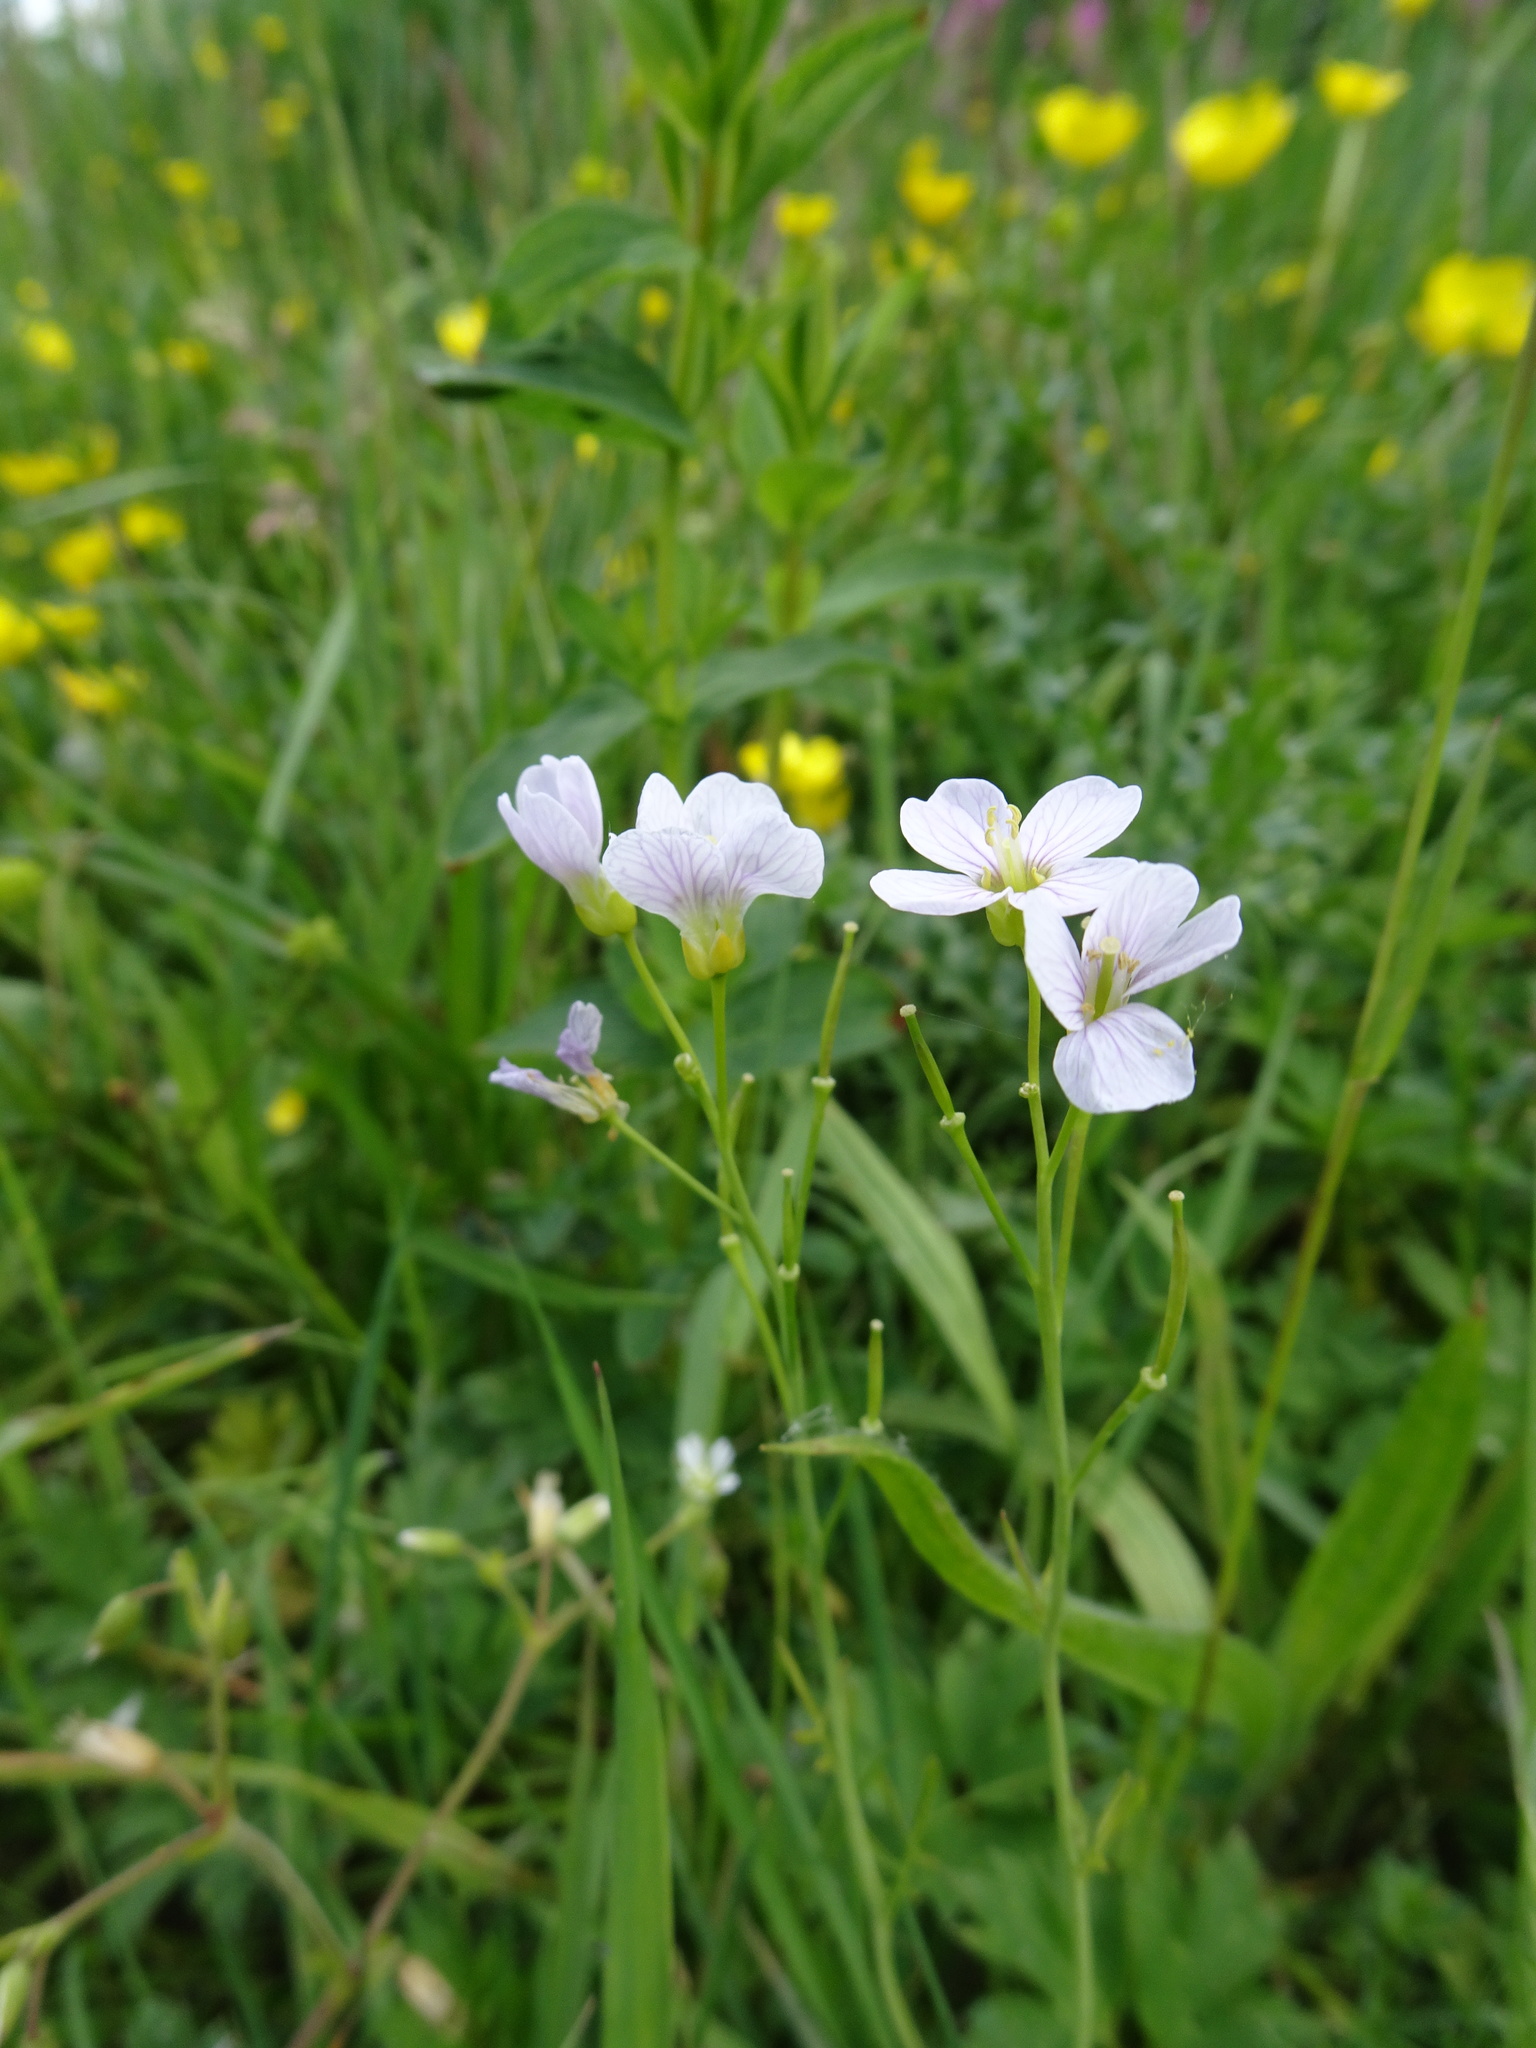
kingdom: Plantae
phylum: Tracheophyta
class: Magnoliopsida
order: Brassicales
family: Brassicaceae
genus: Cardamine
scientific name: Cardamine pratensis
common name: Cuckoo flower
